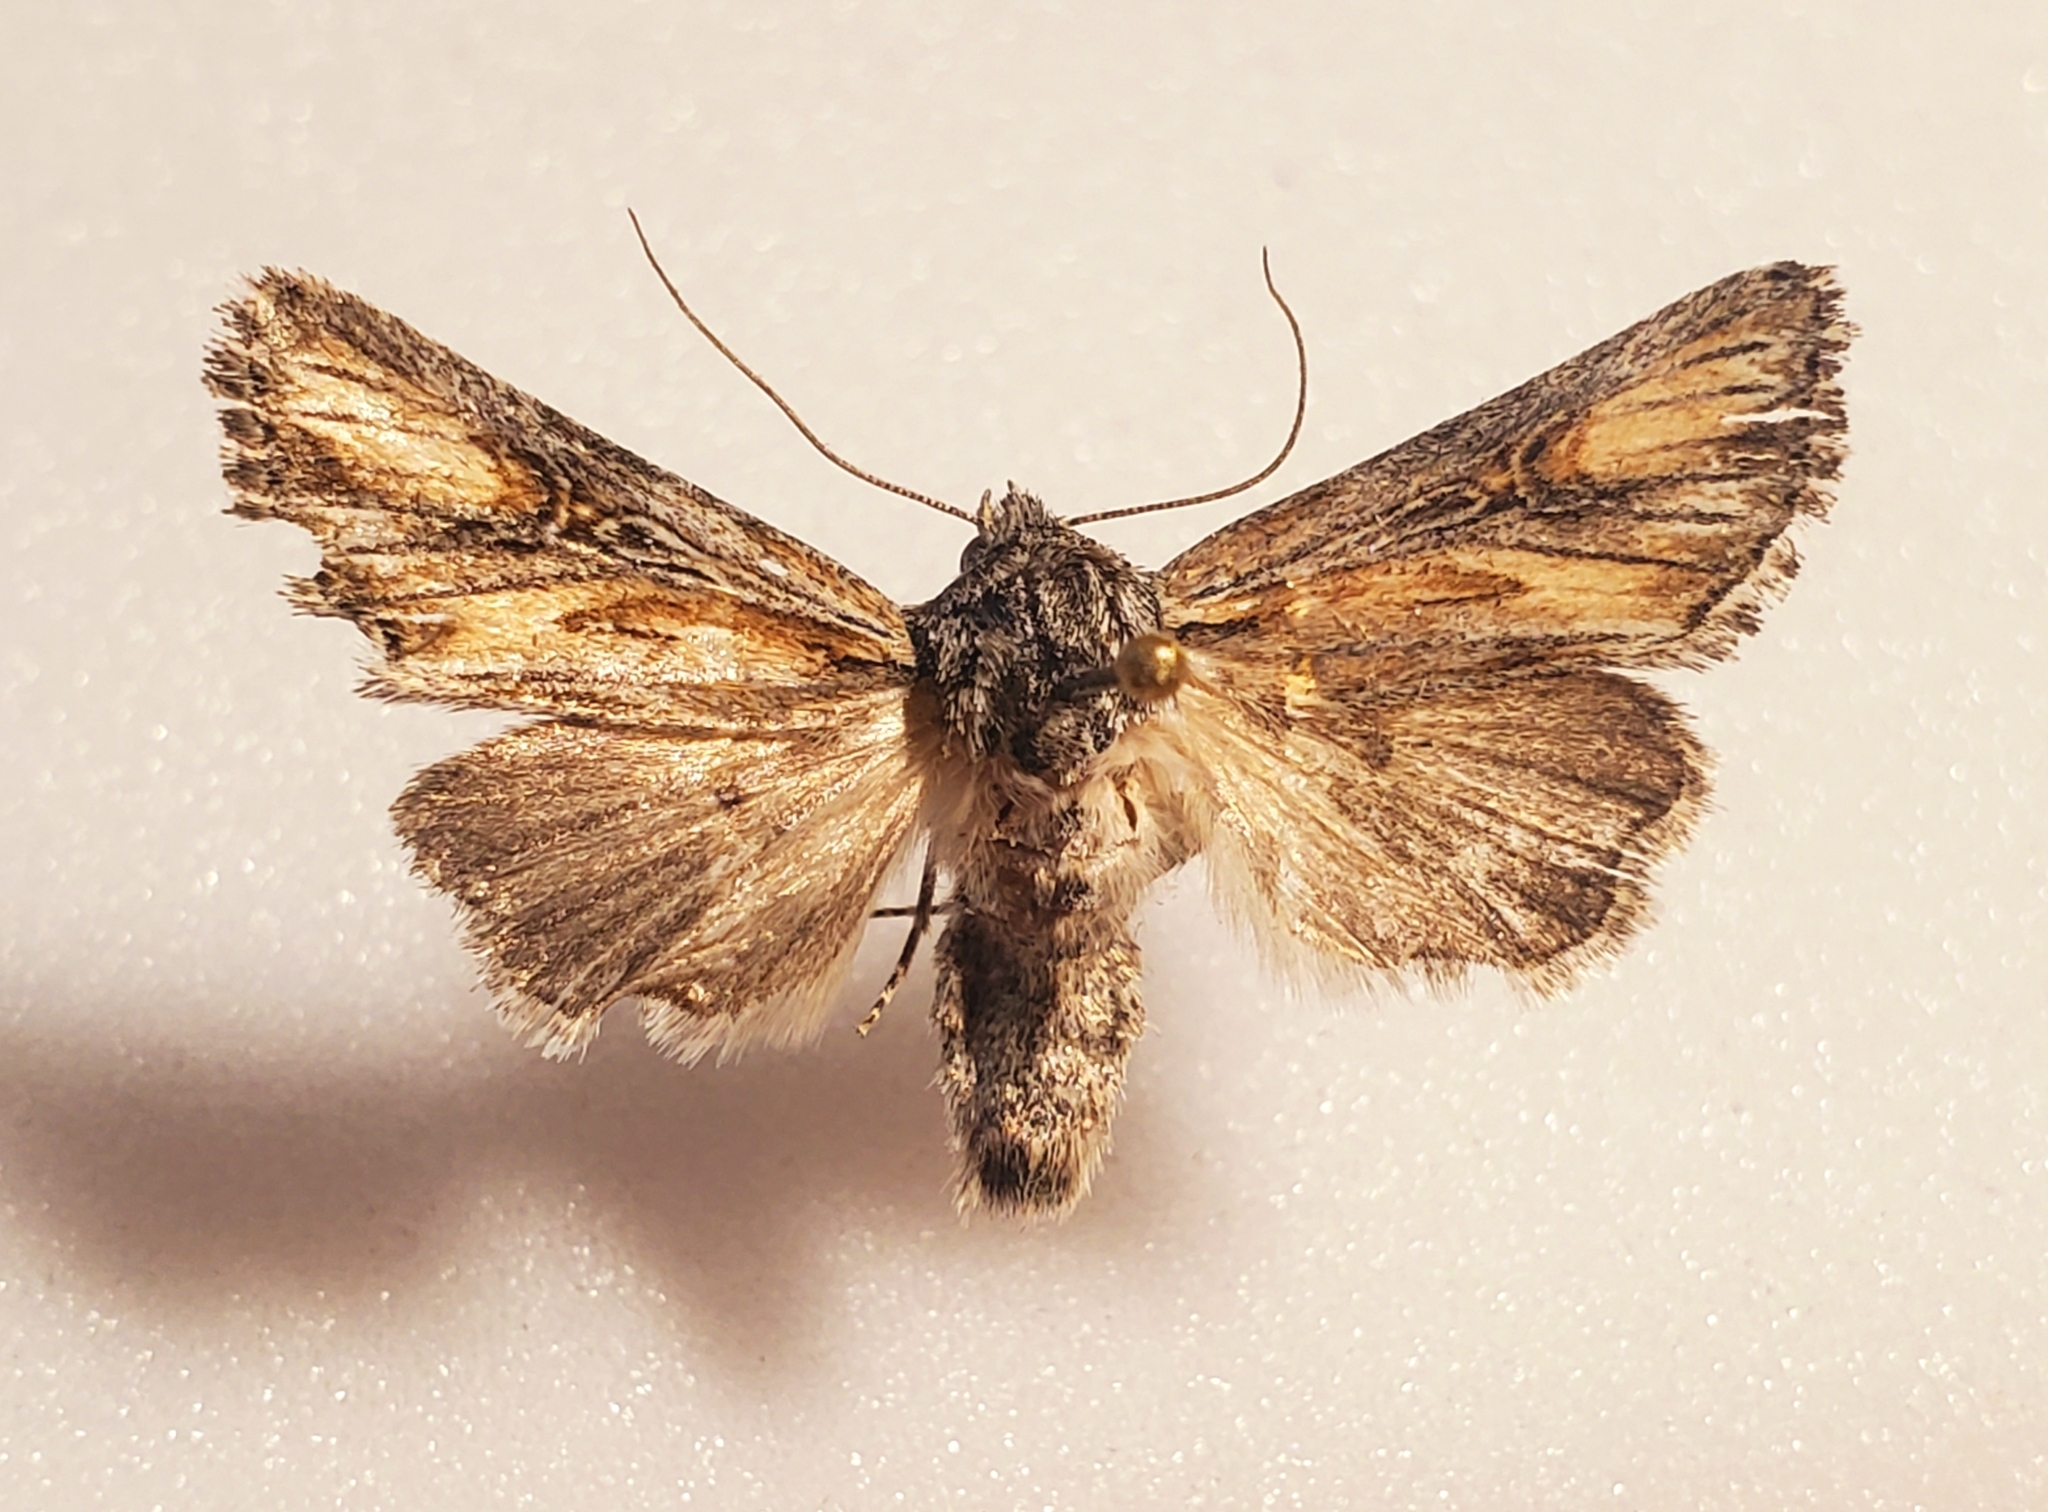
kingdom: Animalia
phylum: Arthropoda
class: Insecta
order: Lepidoptera
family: Noctuidae
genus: Aseptis
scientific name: Aseptis susquesa
